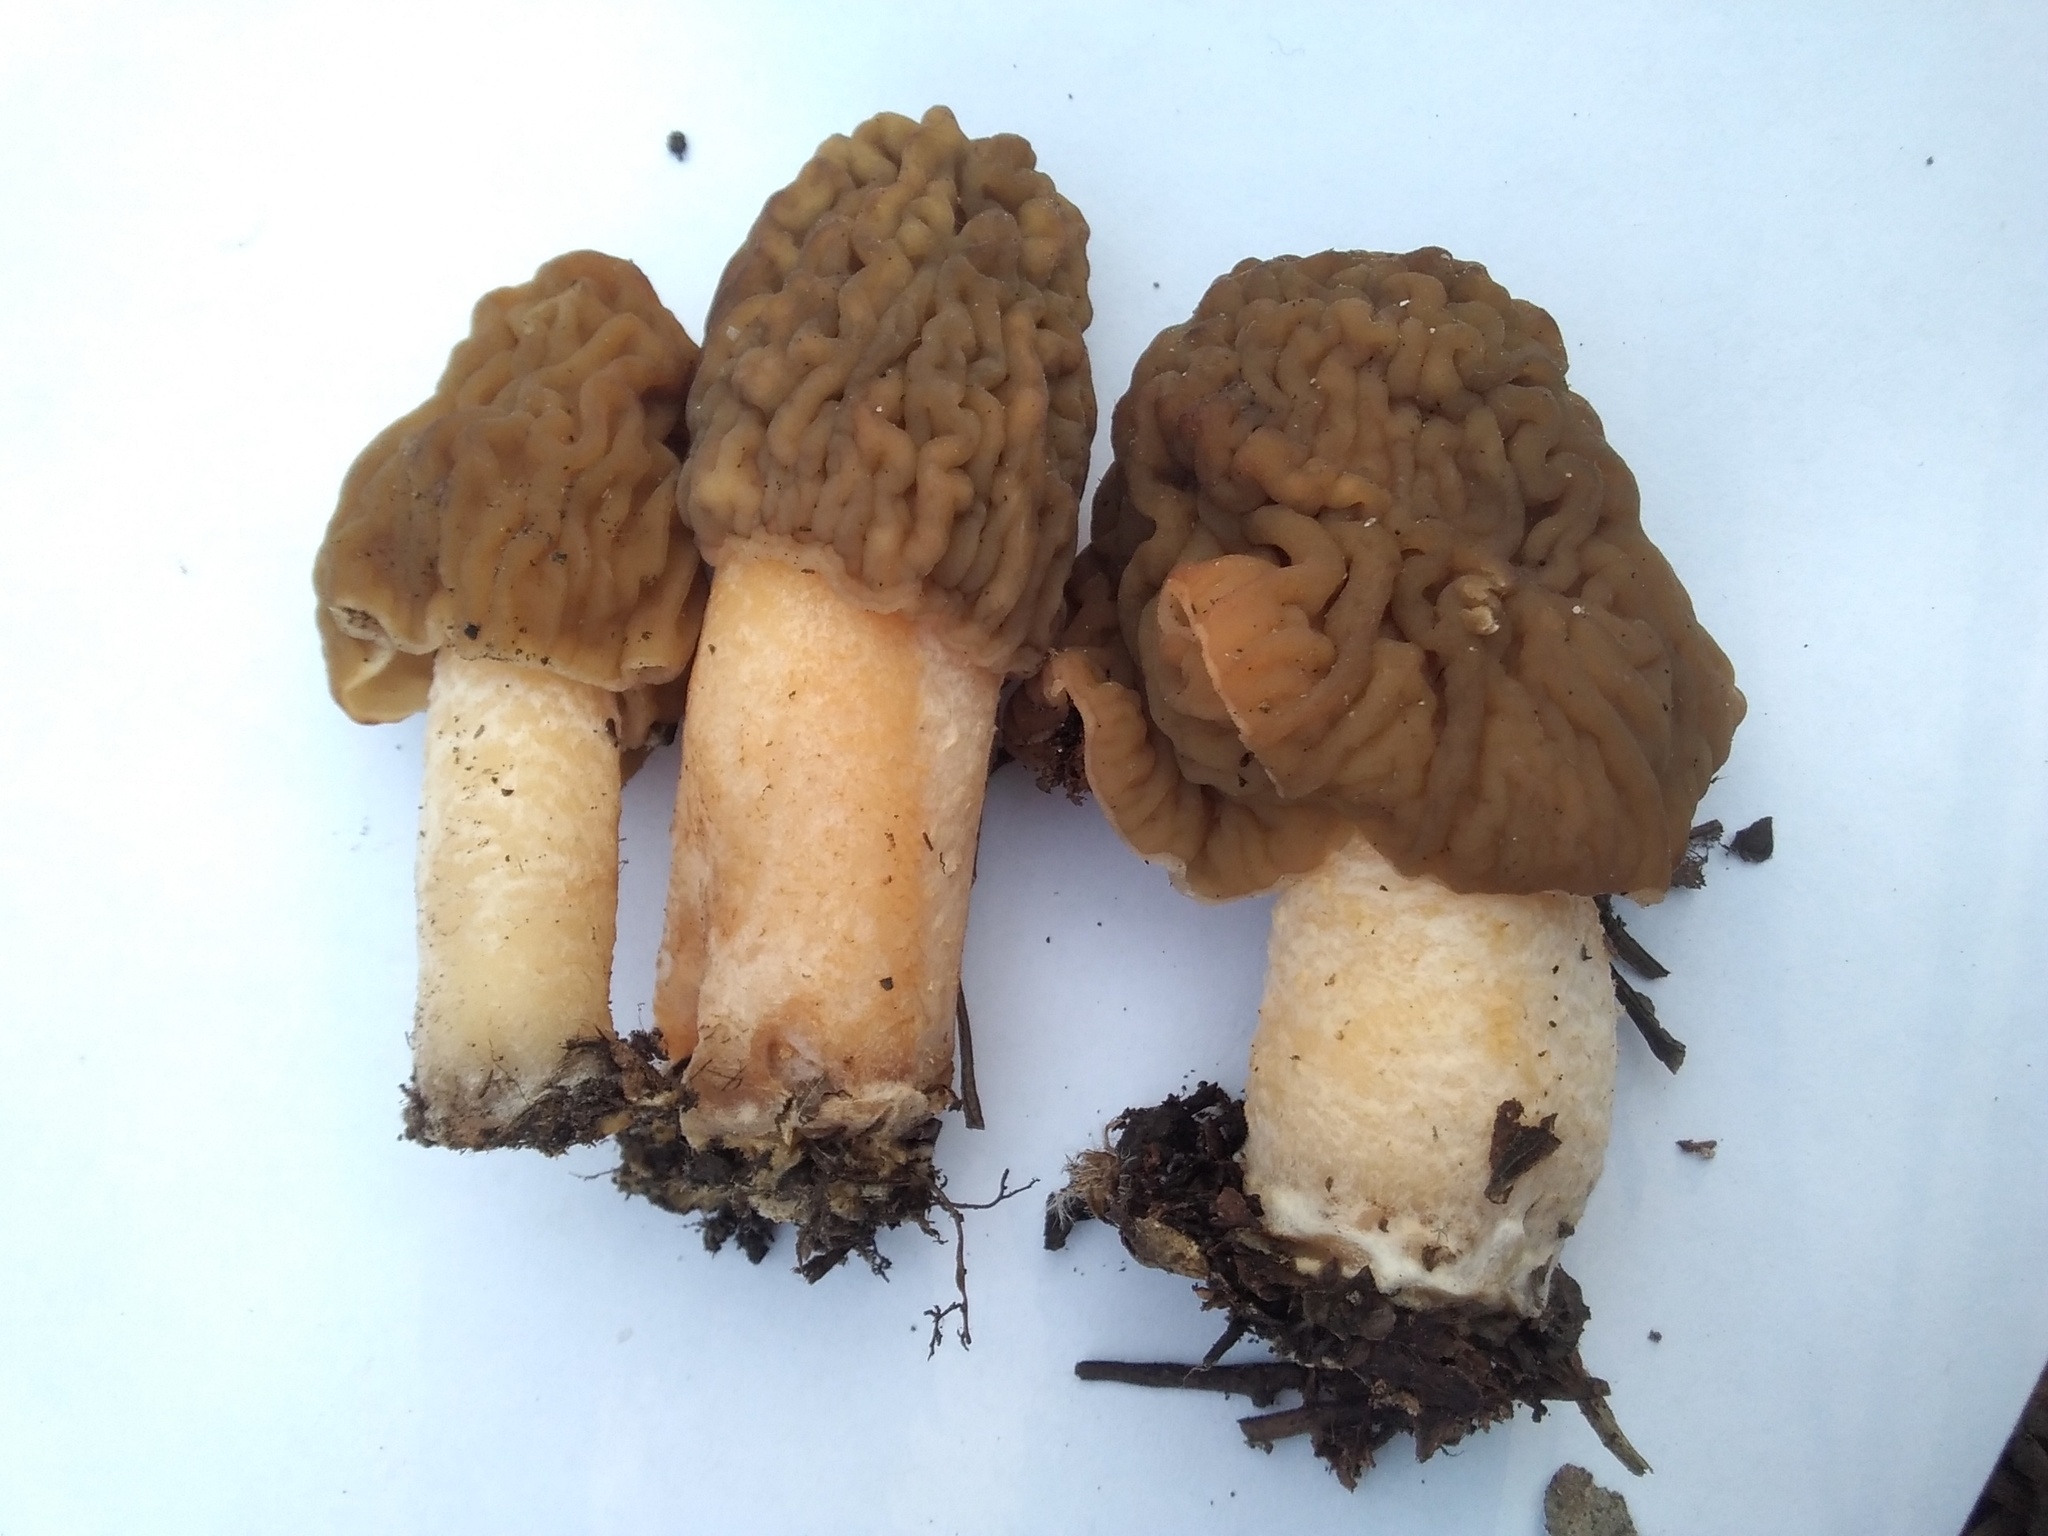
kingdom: Fungi
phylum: Ascomycota
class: Pezizomycetes
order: Pezizales
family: Morchellaceae
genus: Verpa
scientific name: Verpa bohemica
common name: Wrinkled thimble morel
